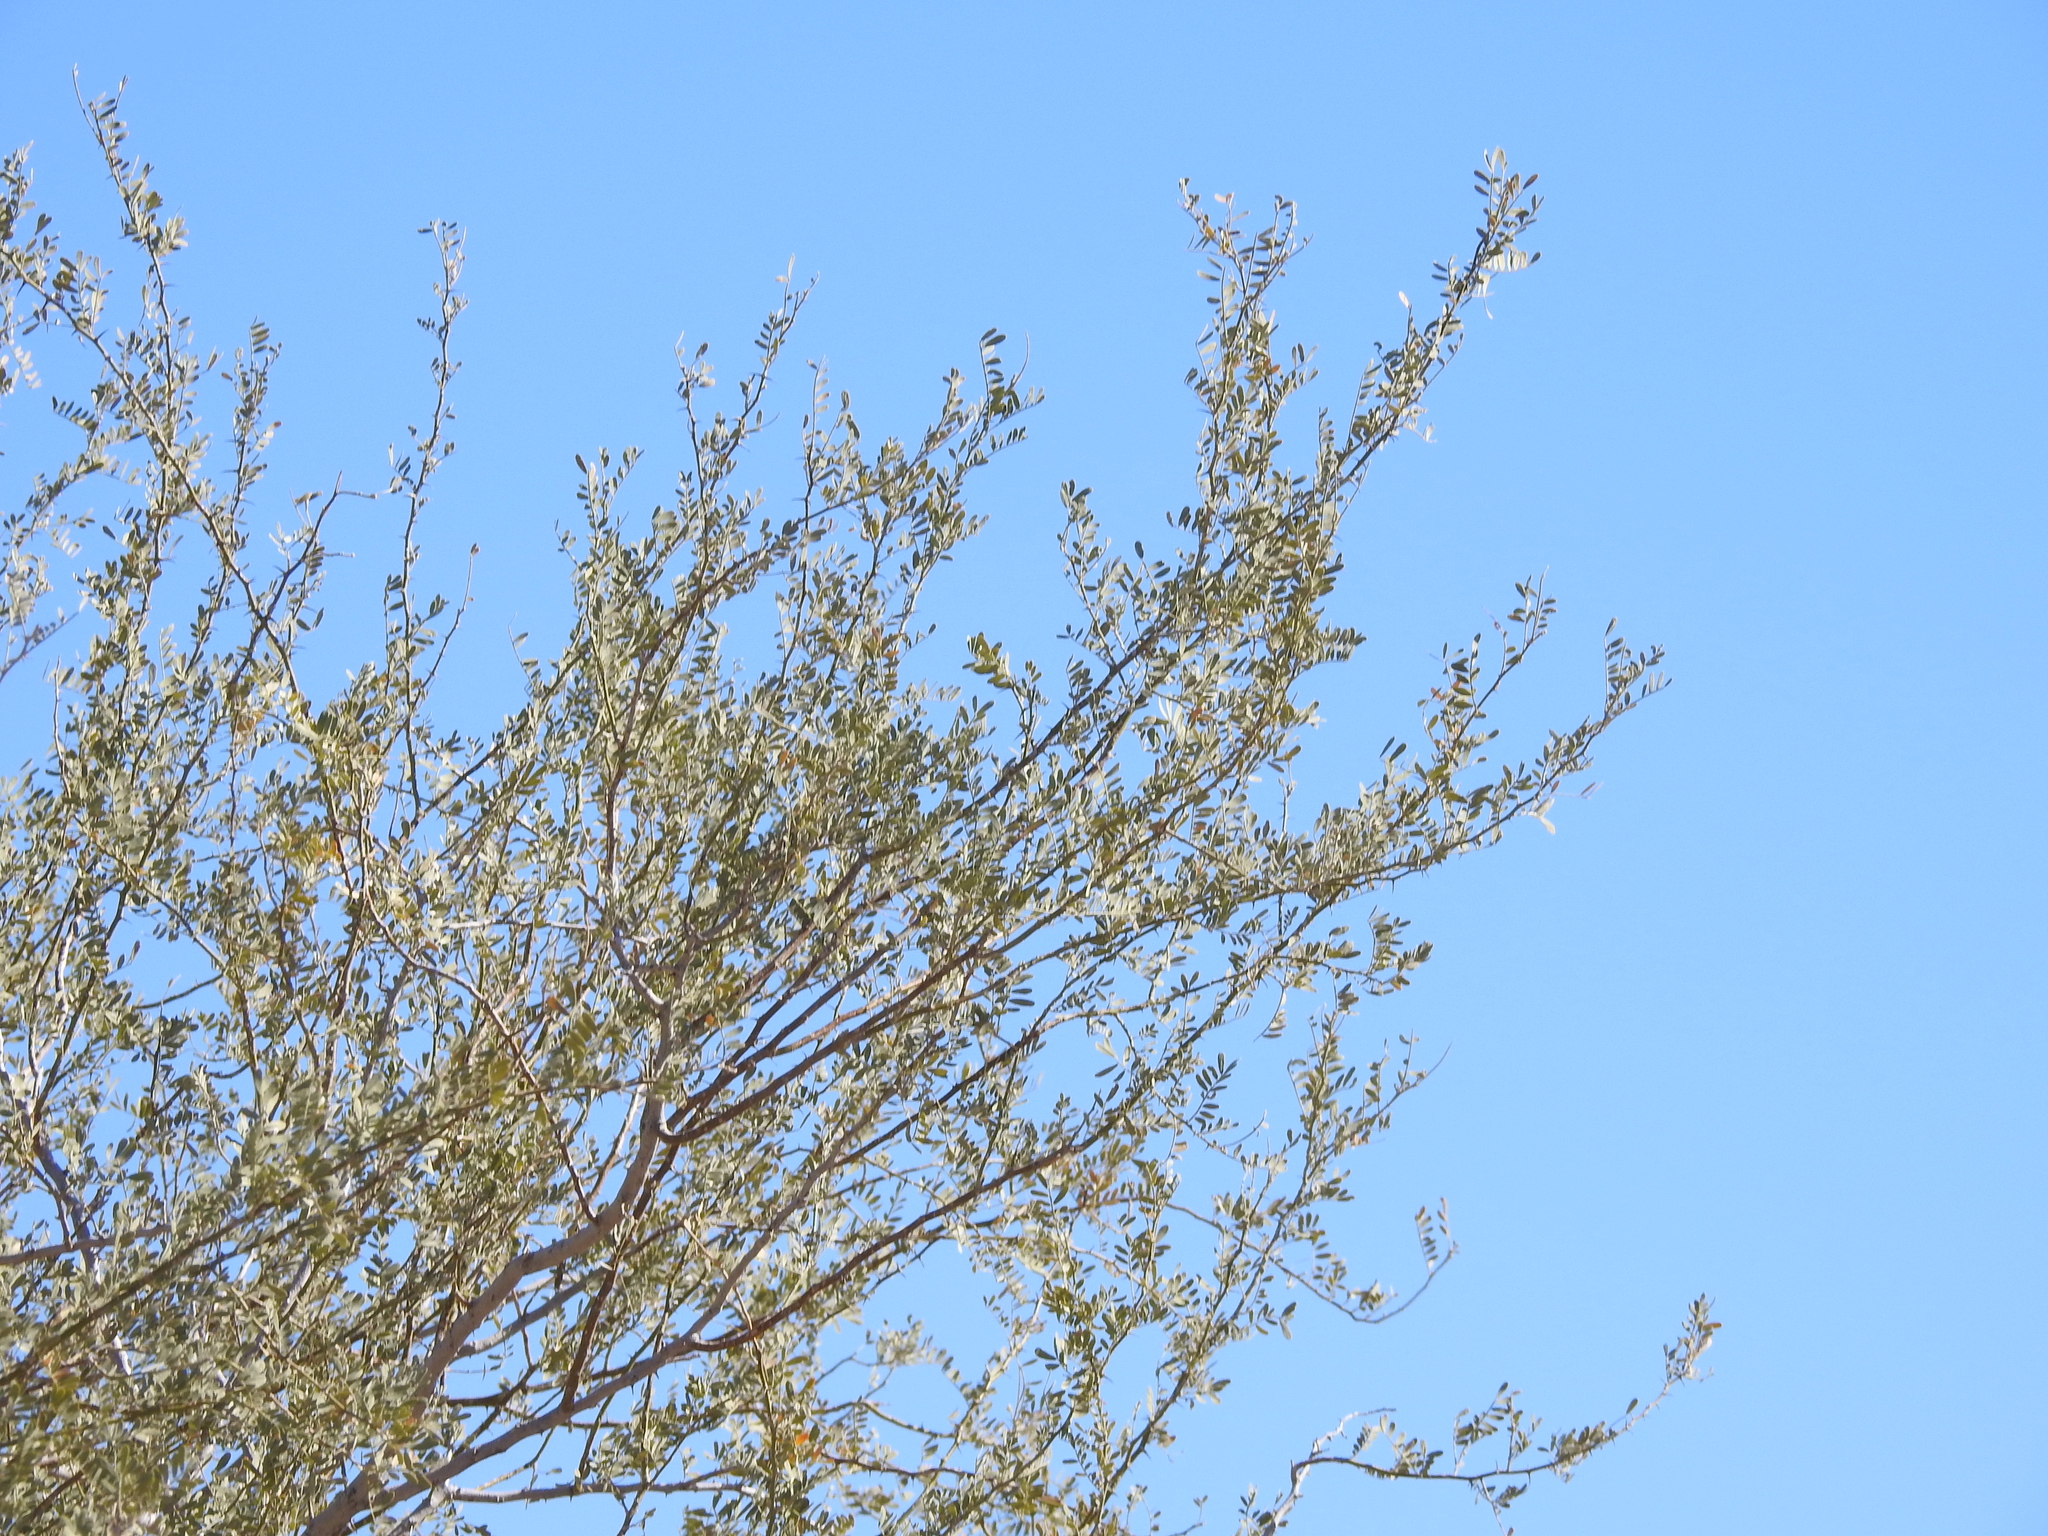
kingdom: Plantae
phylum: Tracheophyta
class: Magnoliopsida
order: Fabales
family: Fabaceae
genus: Olneya
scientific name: Olneya tesota
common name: Desert ironwood
